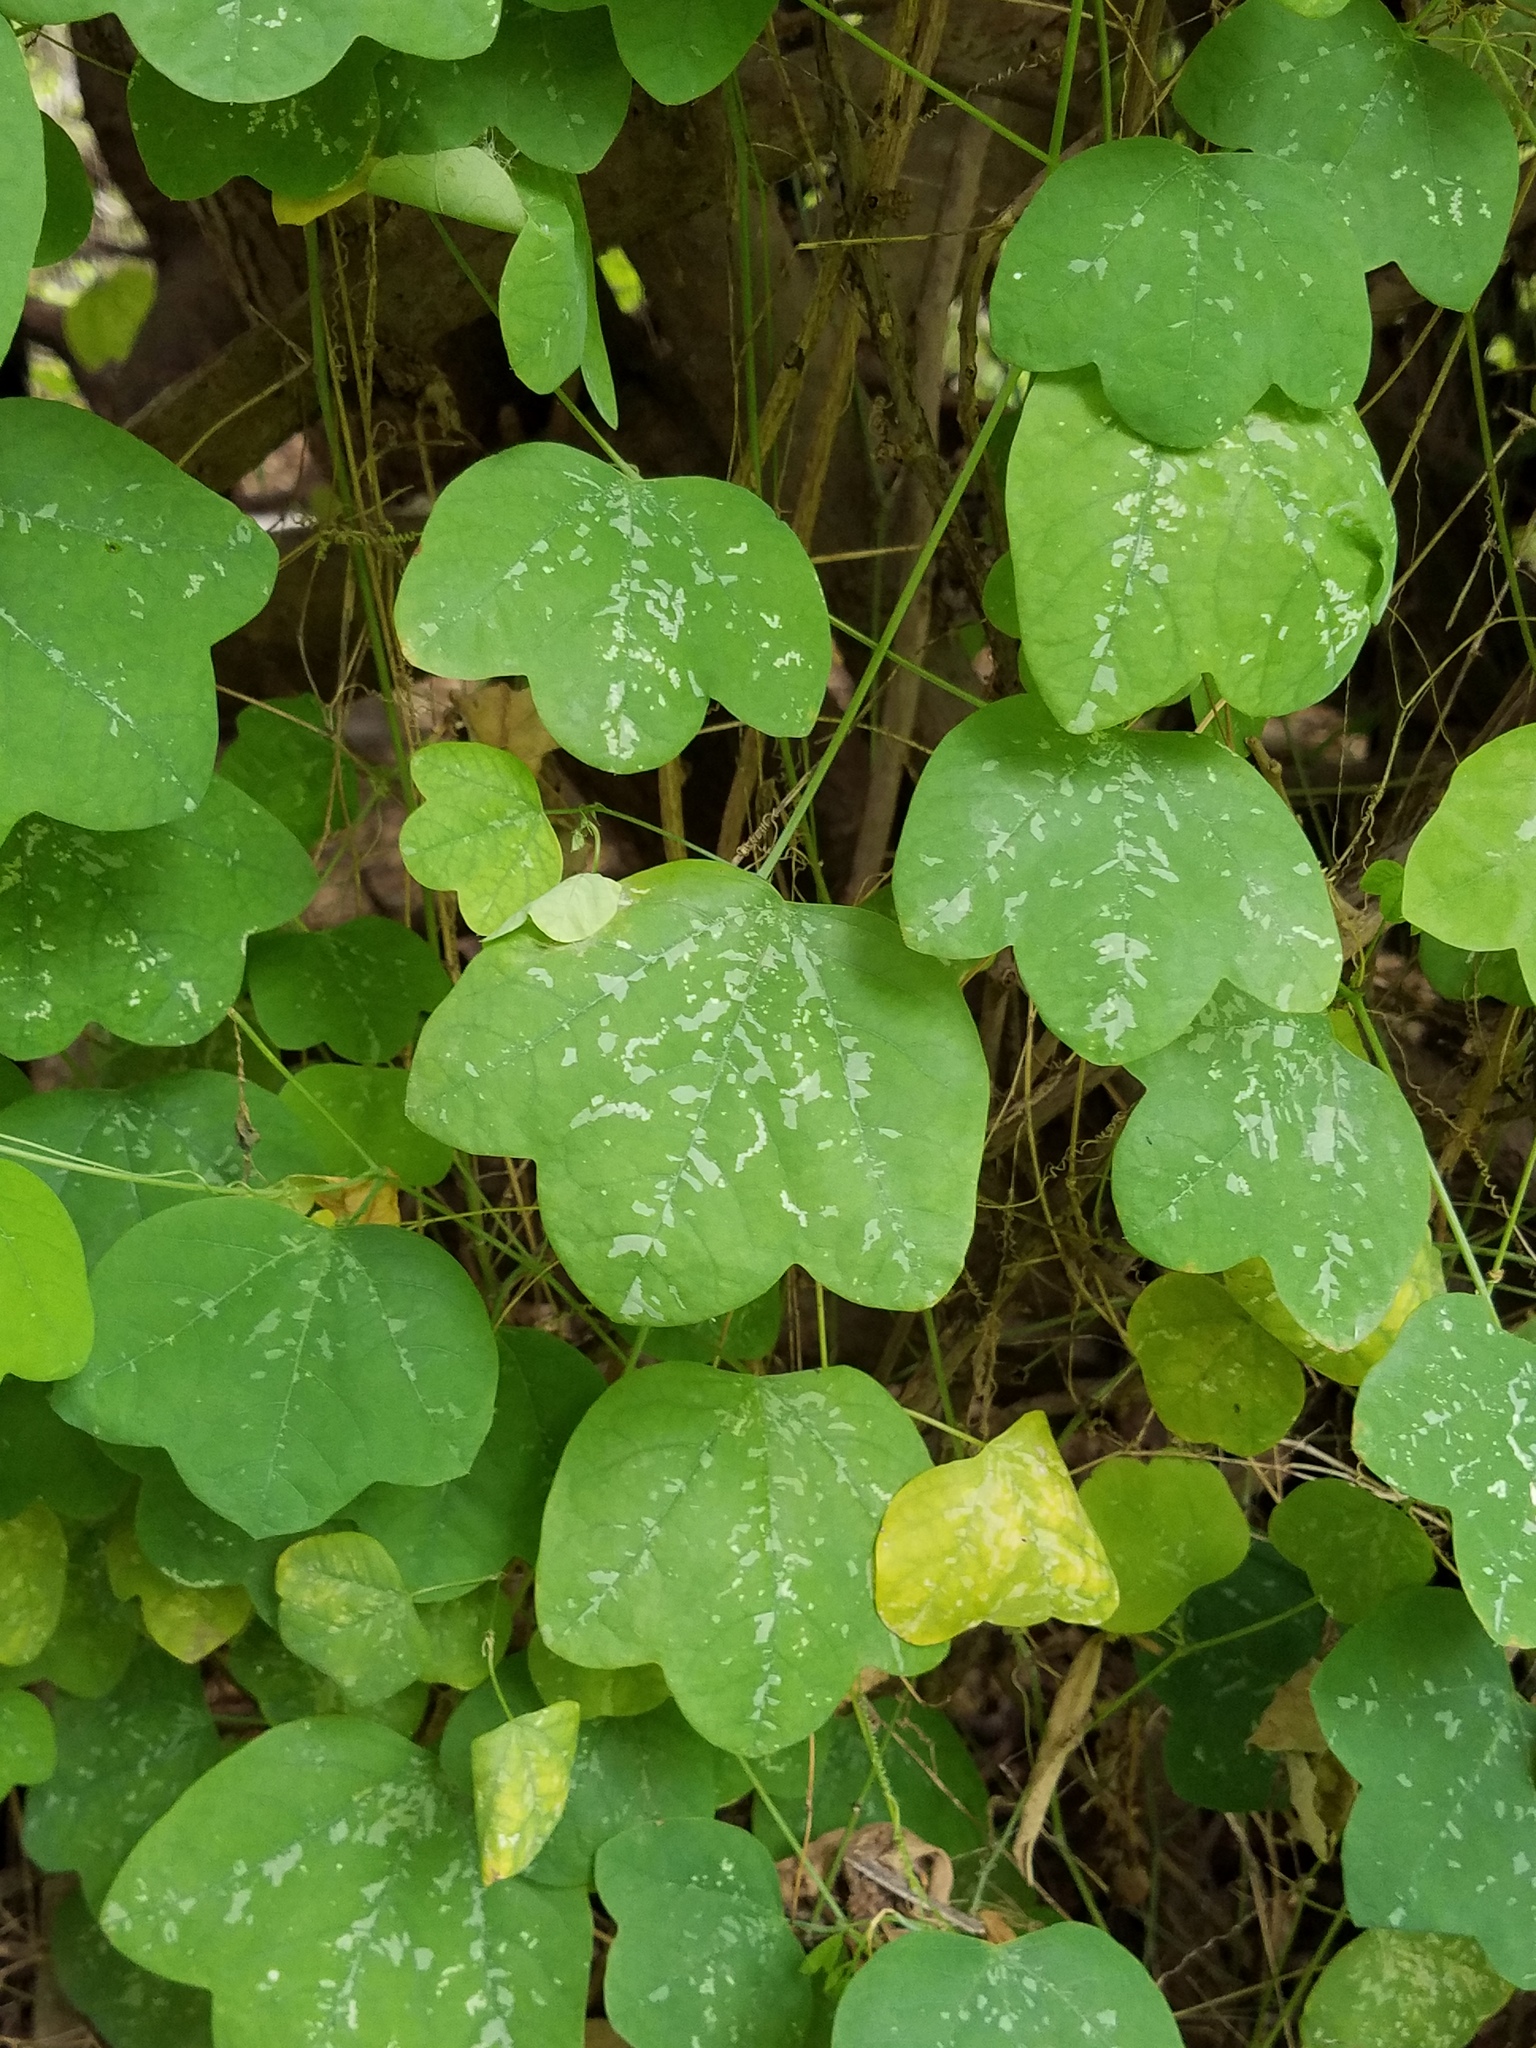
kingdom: Plantae
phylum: Tracheophyta
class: Magnoliopsida
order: Malpighiales
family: Passifloraceae
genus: Passiflora
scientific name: Passiflora filipes
